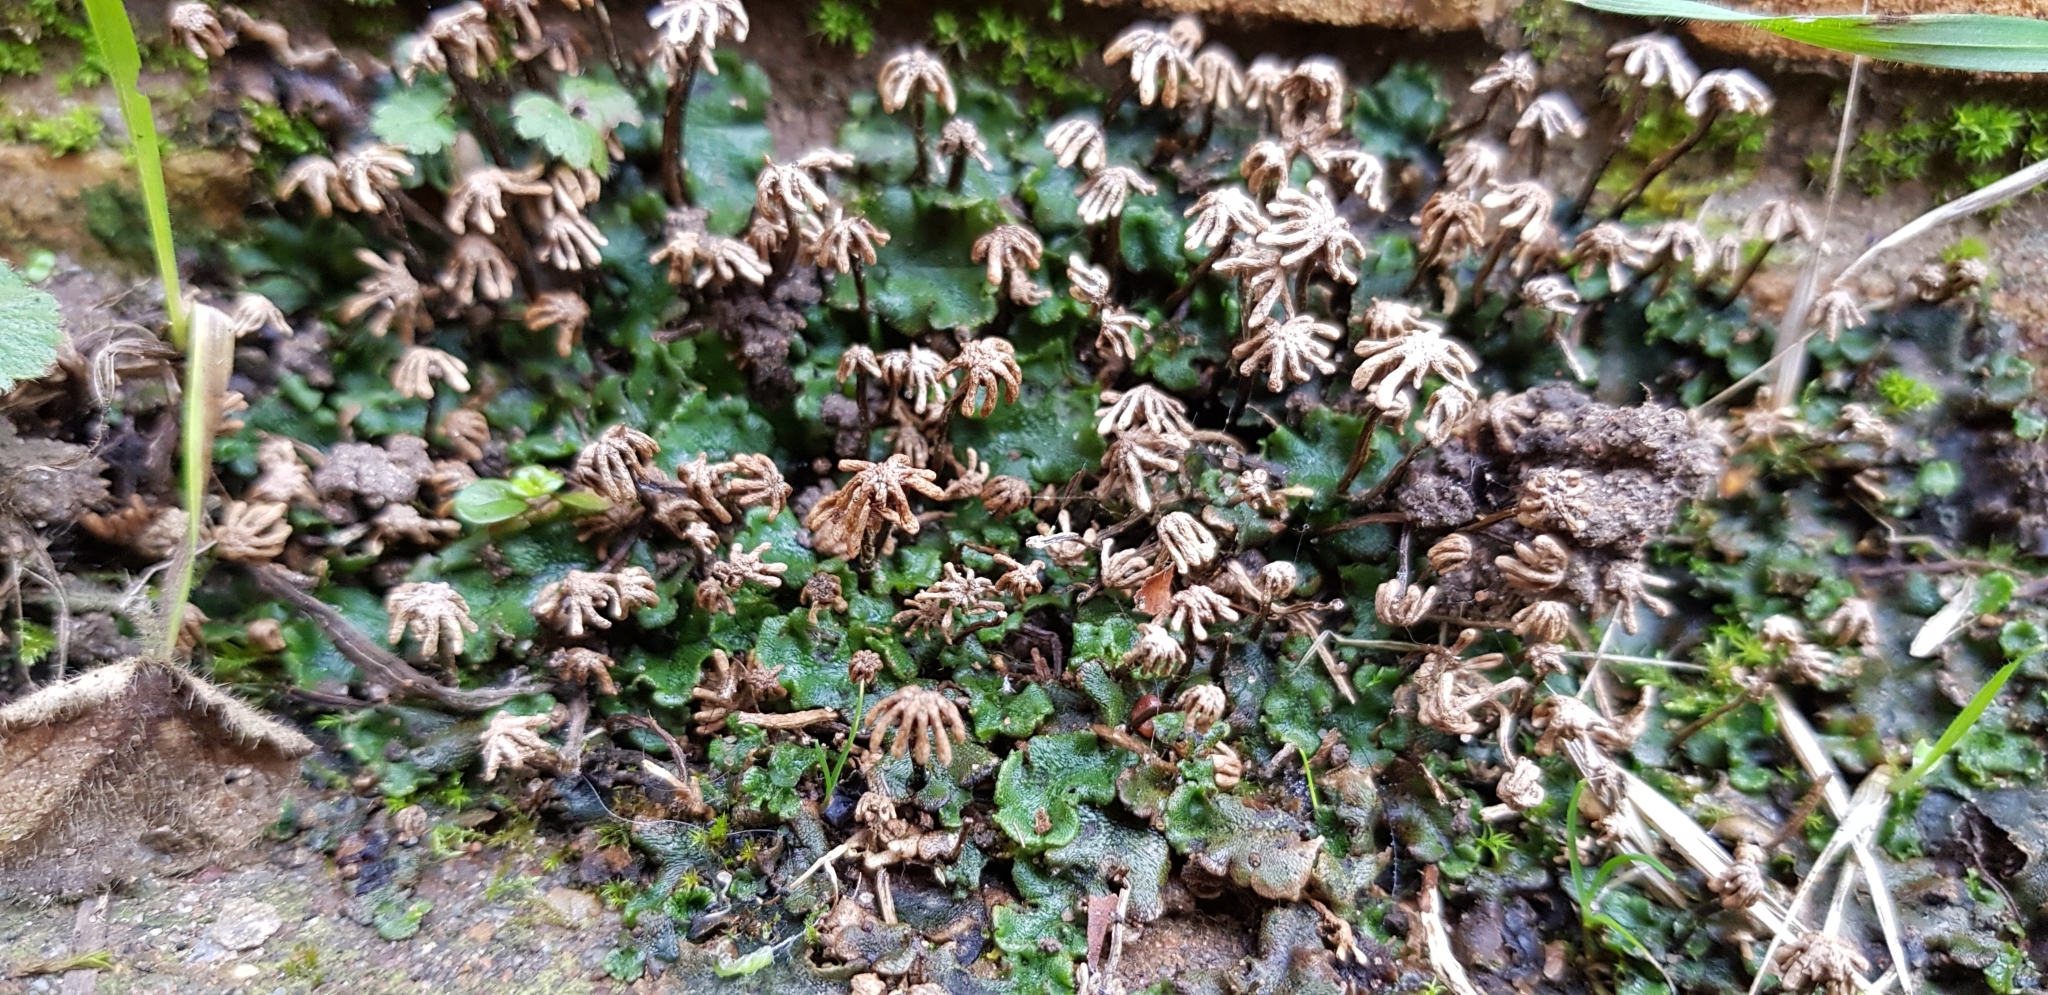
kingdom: Plantae
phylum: Marchantiophyta
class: Marchantiopsida
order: Marchantiales
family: Marchantiaceae
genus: Marchantia
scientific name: Marchantia polymorpha
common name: Common liverwort
